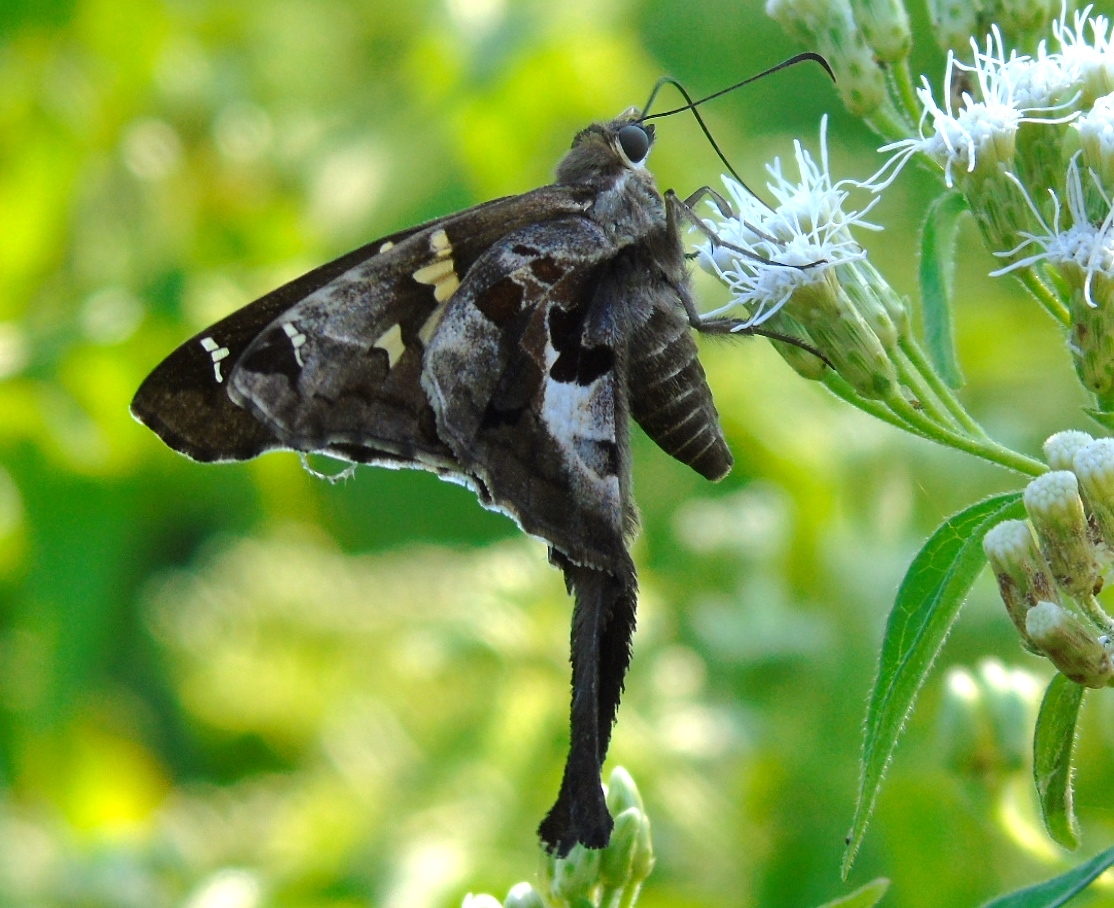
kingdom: Animalia
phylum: Arthropoda
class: Insecta
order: Lepidoptera
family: Hesperiidae
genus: Chioides
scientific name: Chioides zilpa
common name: Zilpa longtail
